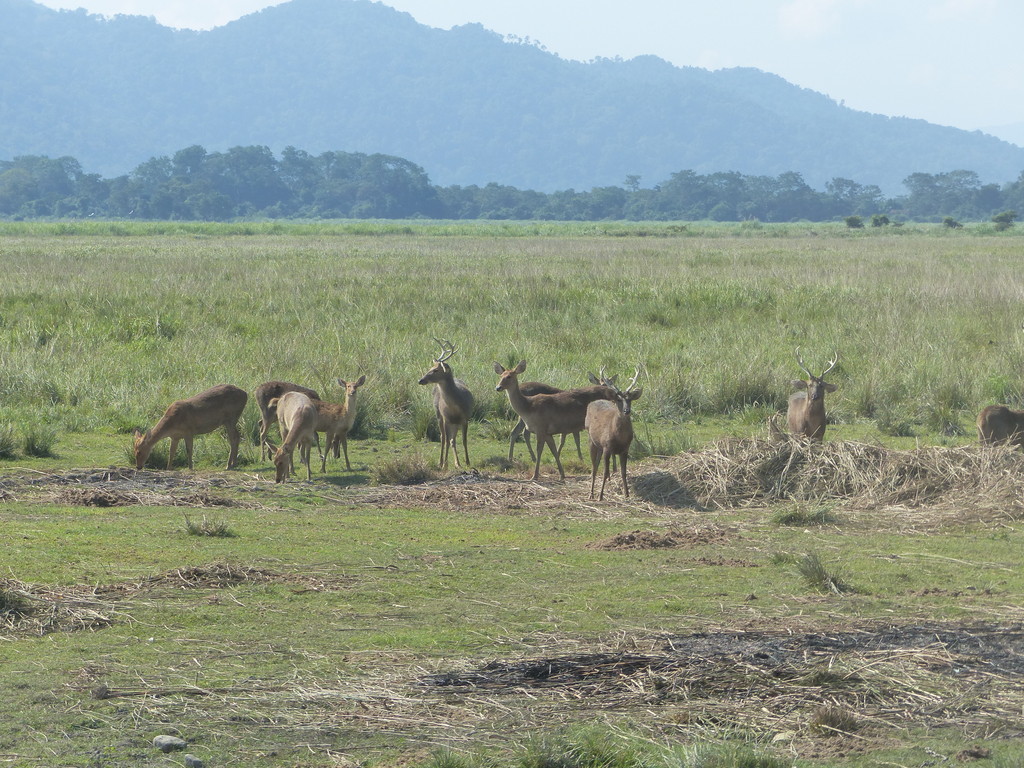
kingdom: Animalia
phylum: Chordata
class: Mammalia
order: Artiodactyla
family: Cervidae
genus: Rucervus
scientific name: Rucervus duvaucelii
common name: Barasingha
